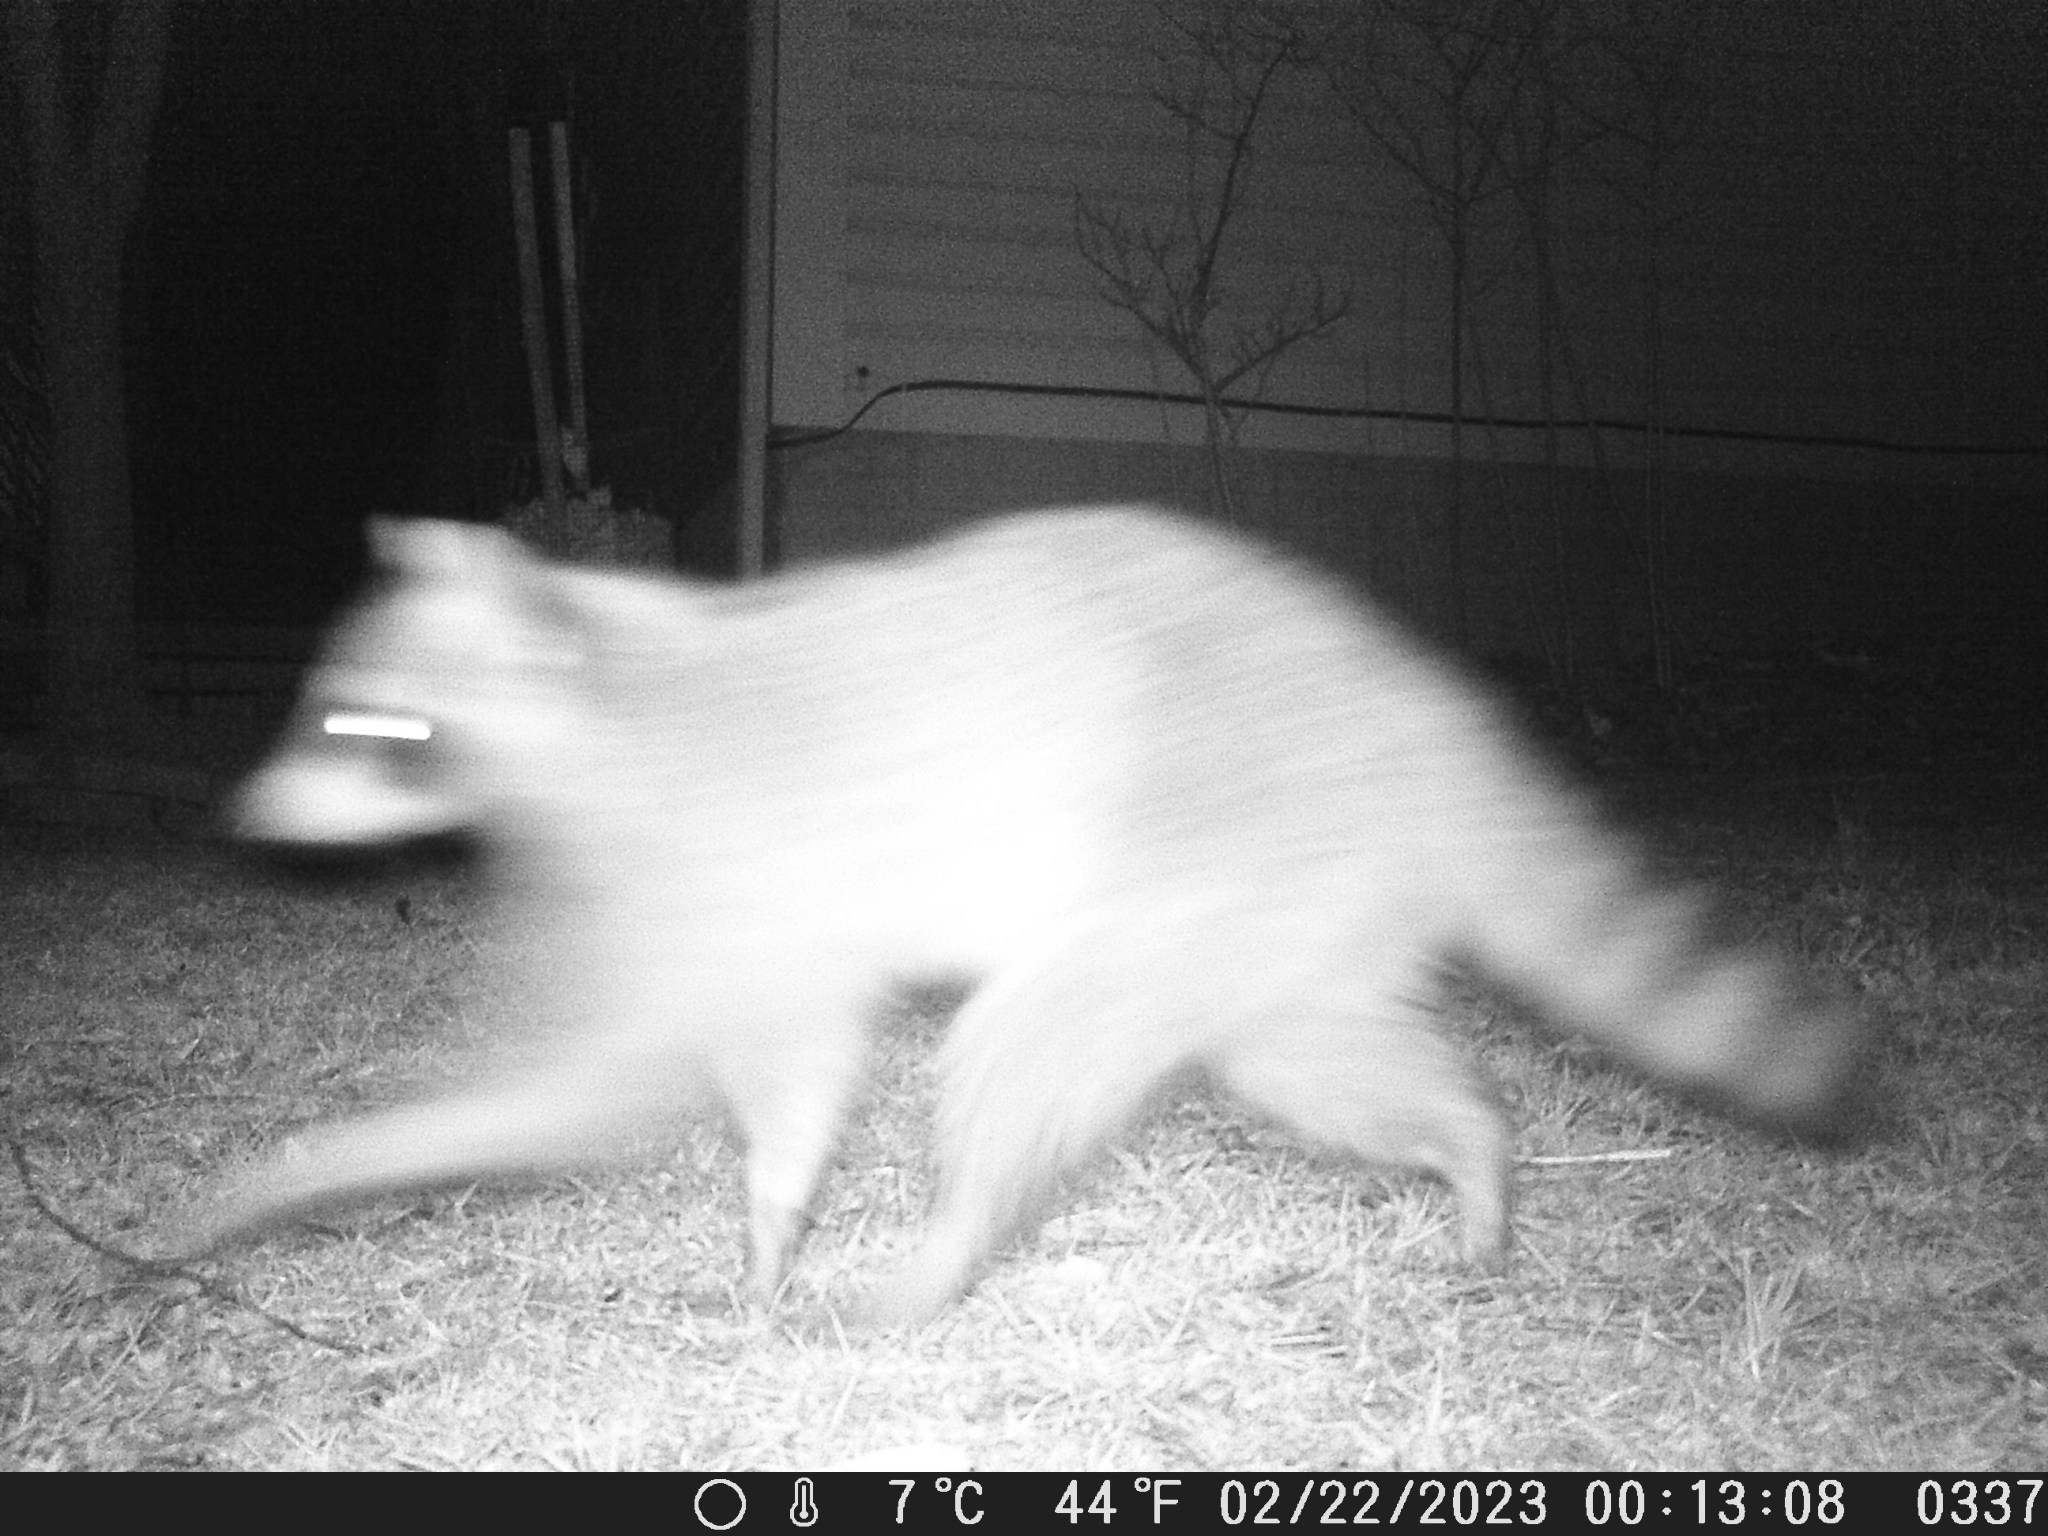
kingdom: Animalia
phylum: Chordata
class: Mammalia
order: Carnivora
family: Procyonidae
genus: Procyon
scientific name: Procyon lotor
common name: Raccoon
